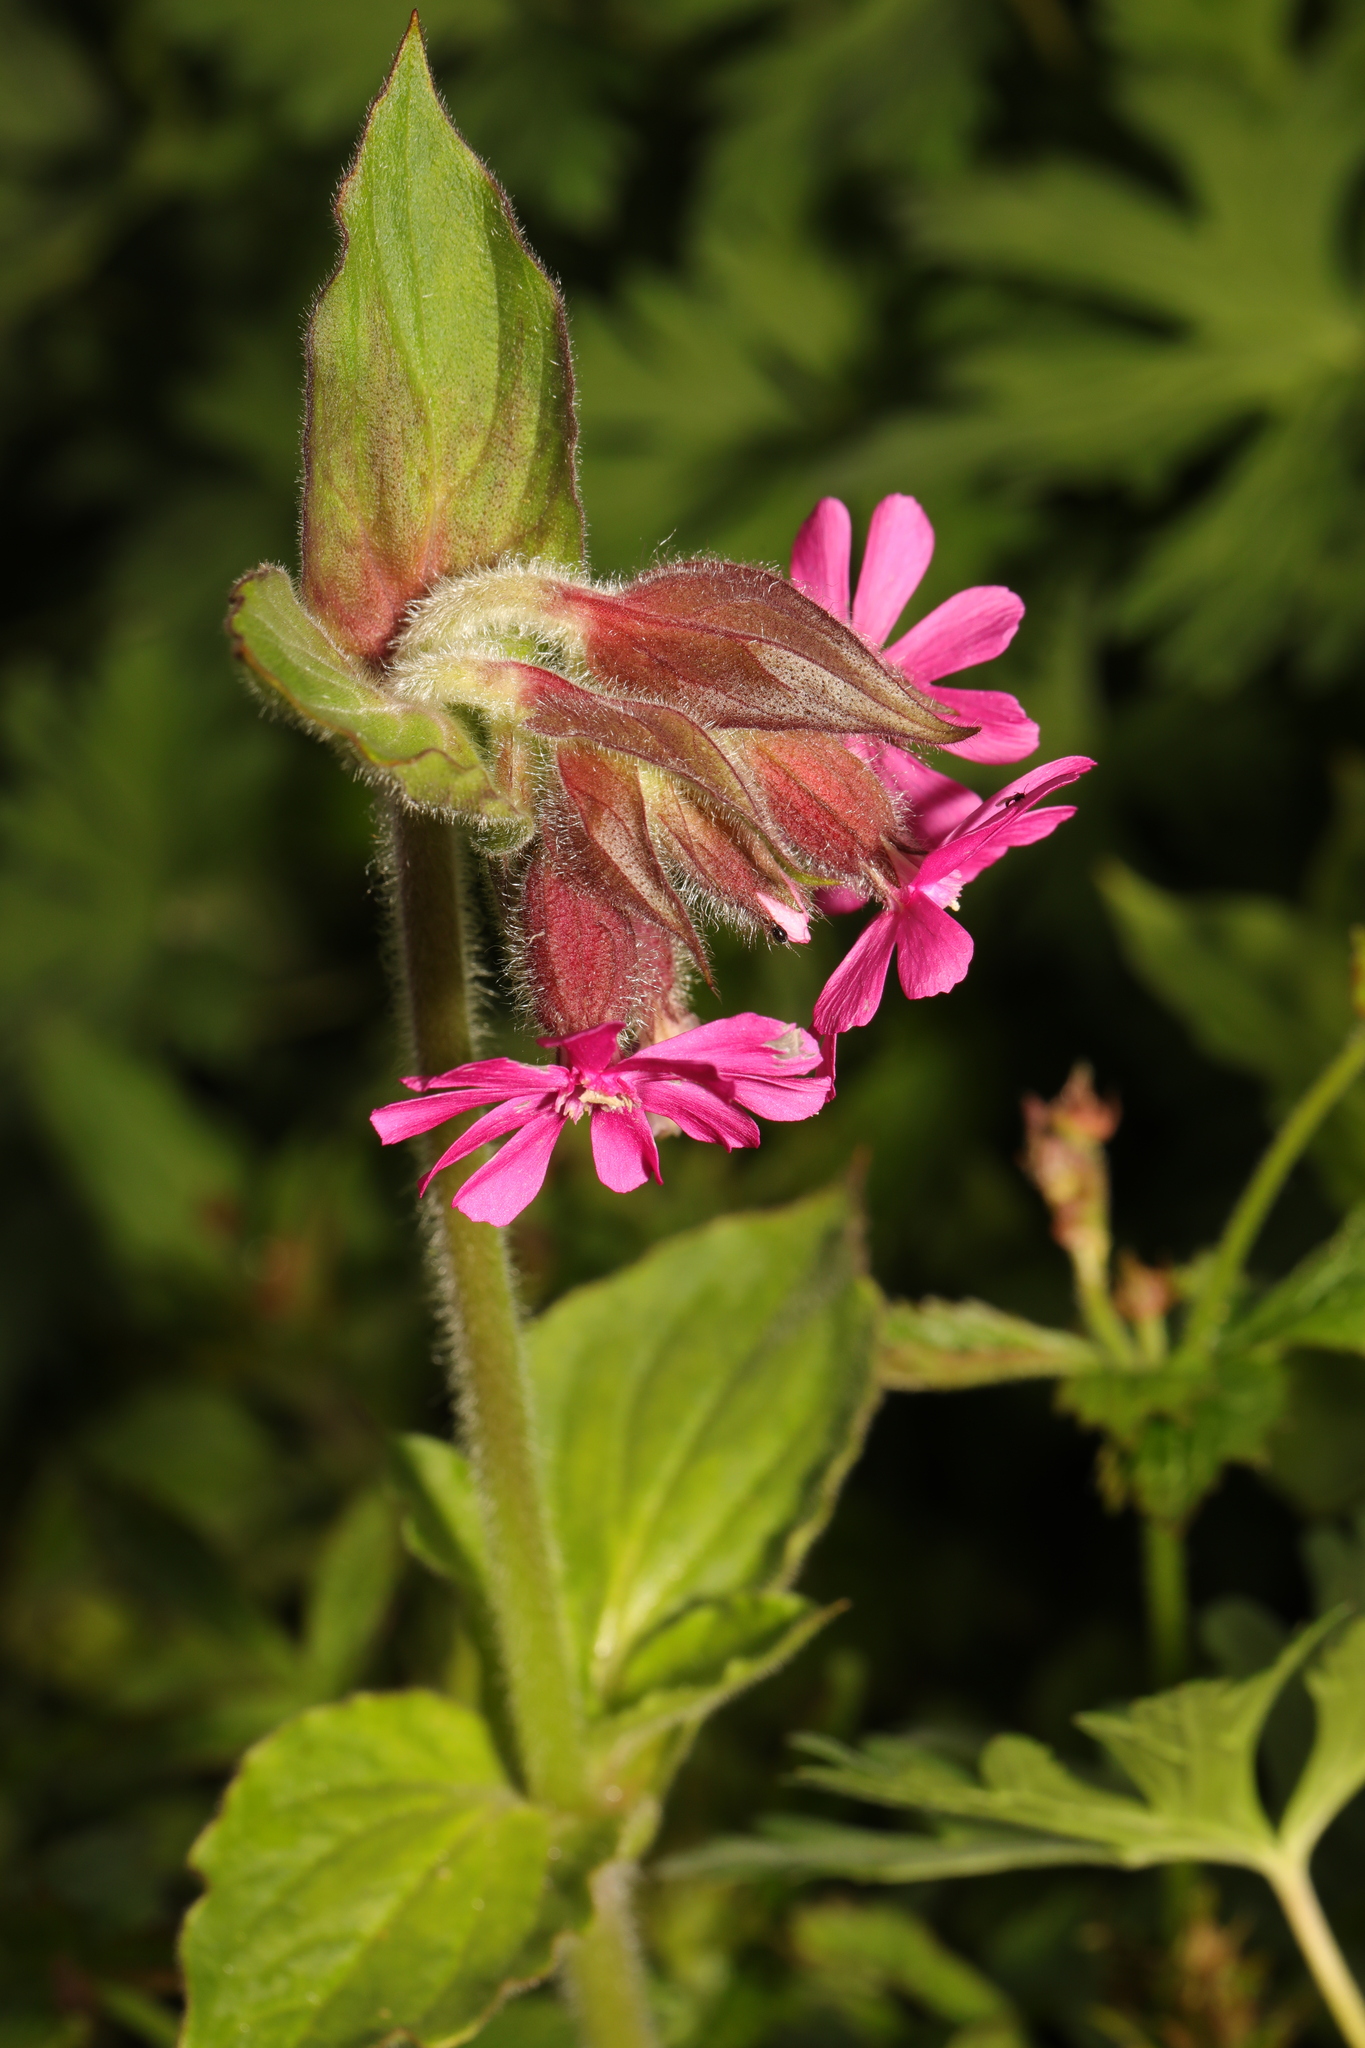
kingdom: Plantae
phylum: Tracheophyta
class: Magnoliopsida
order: Caryophyllales
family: Caryophyllaceae
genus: Silene
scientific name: Silene dioica
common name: Red campion
